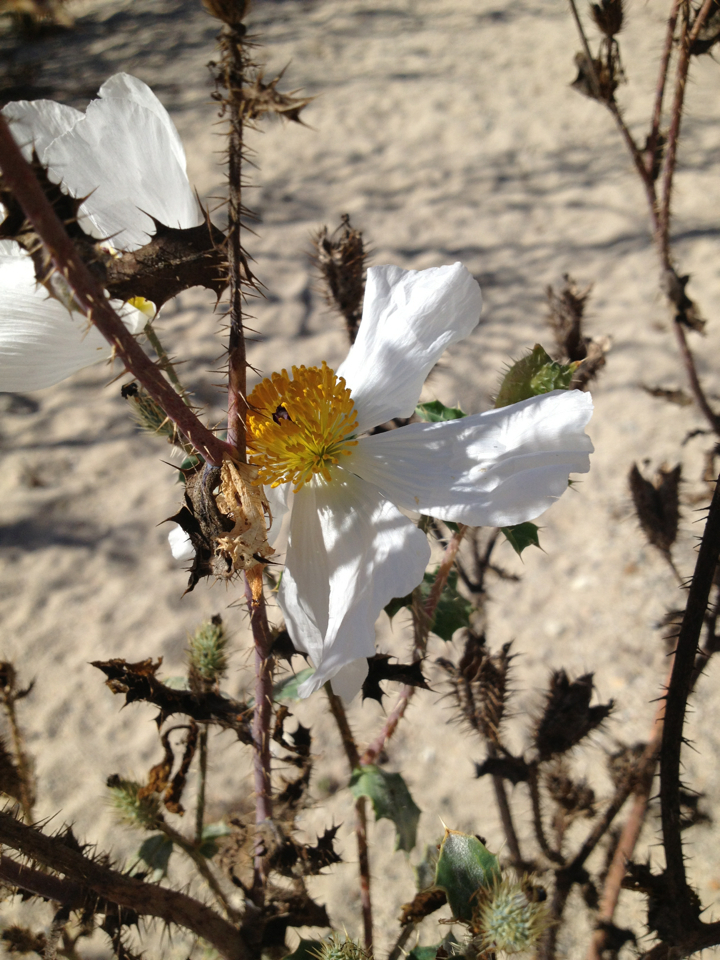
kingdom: Plantae
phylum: Tracheophyta
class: Magnoliopsida
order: Ranunculales
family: Papaveraceae
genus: Argemone
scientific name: Argemone munita
